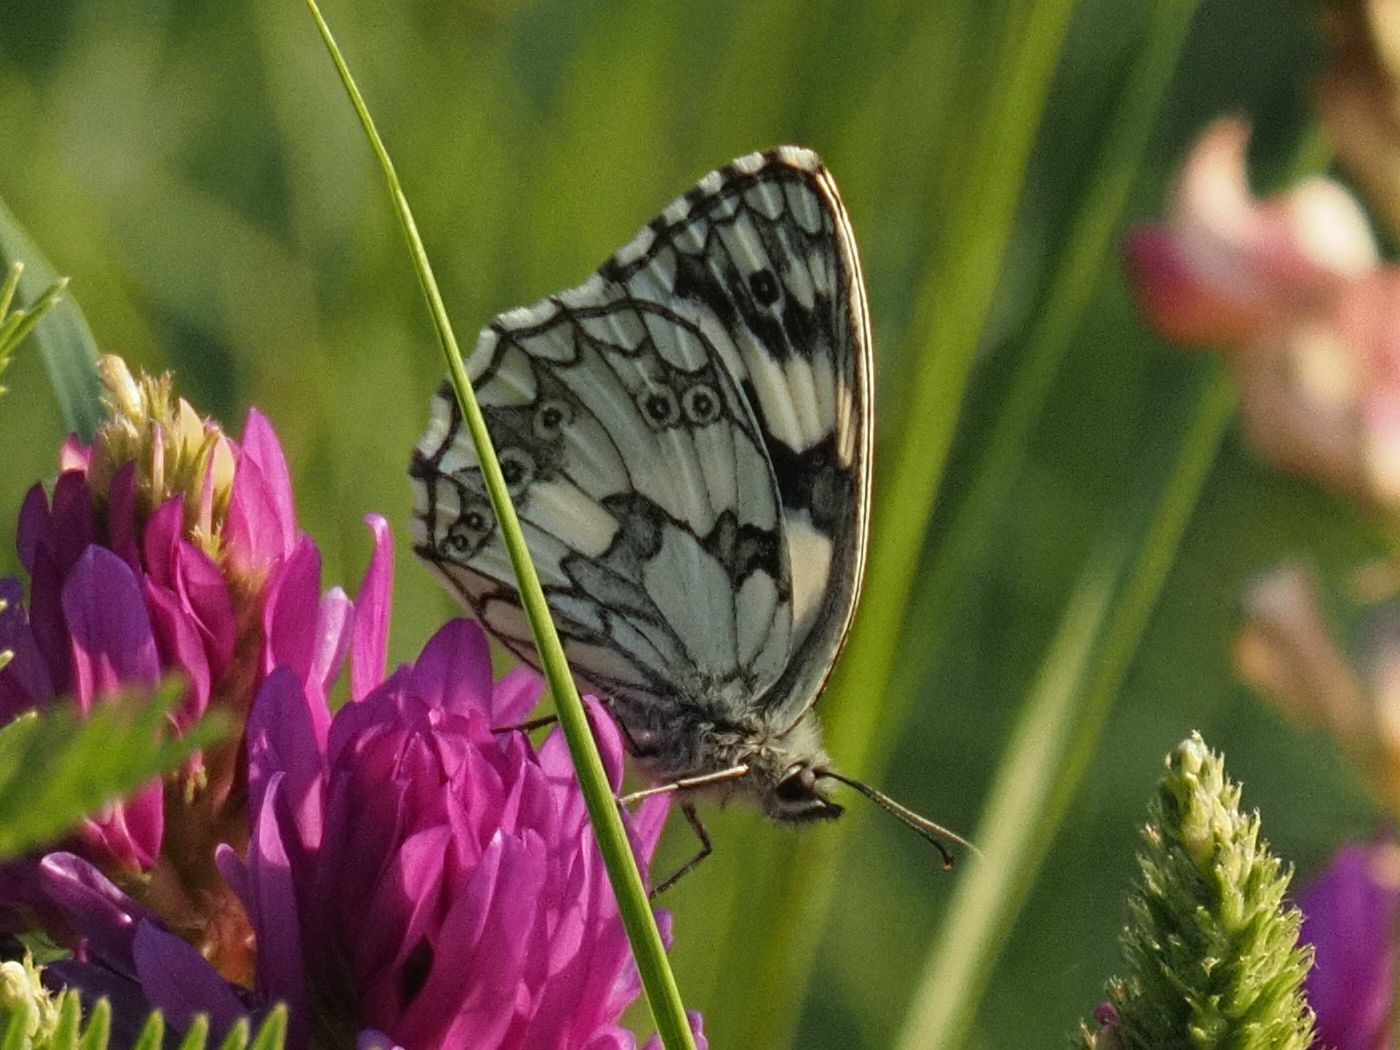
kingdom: Animalia
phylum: Arthropoda
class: Insecta
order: Lepidoptera
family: Nymphalidae
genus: Melanargia
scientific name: Melanargia galathea
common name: Marbled white
